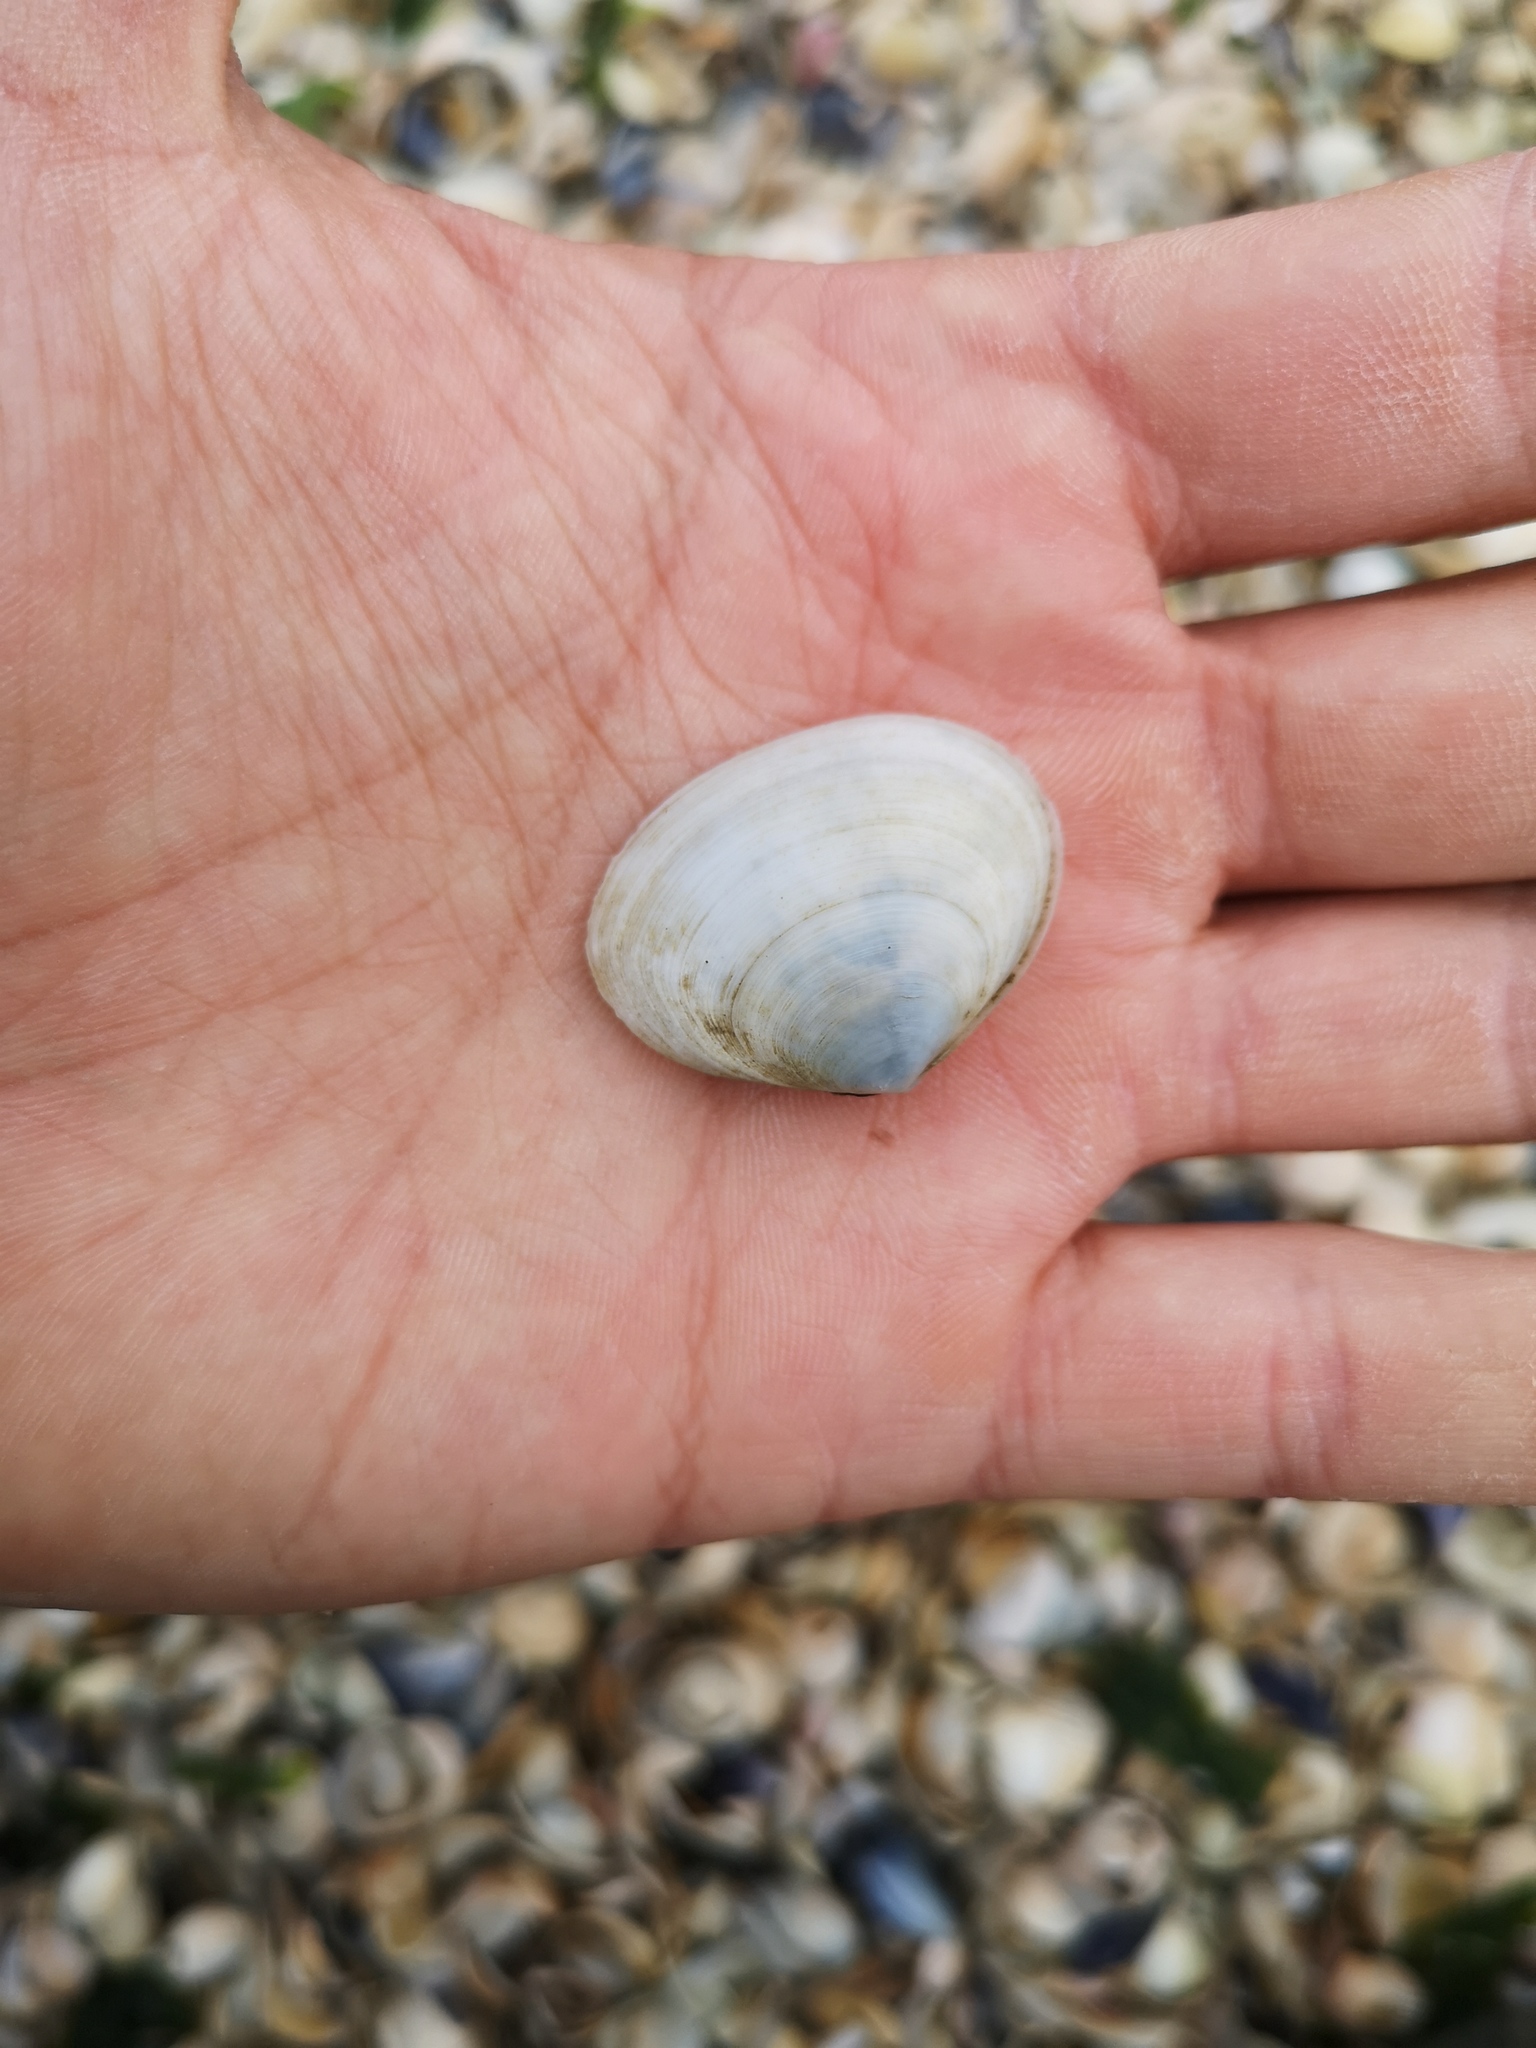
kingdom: Animalia
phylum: Mollusca
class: Bivalvia
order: Cardiida
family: Semelidae
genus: Scrobicularia
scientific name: Scrobicularia plana
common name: Peppery furrow shell
